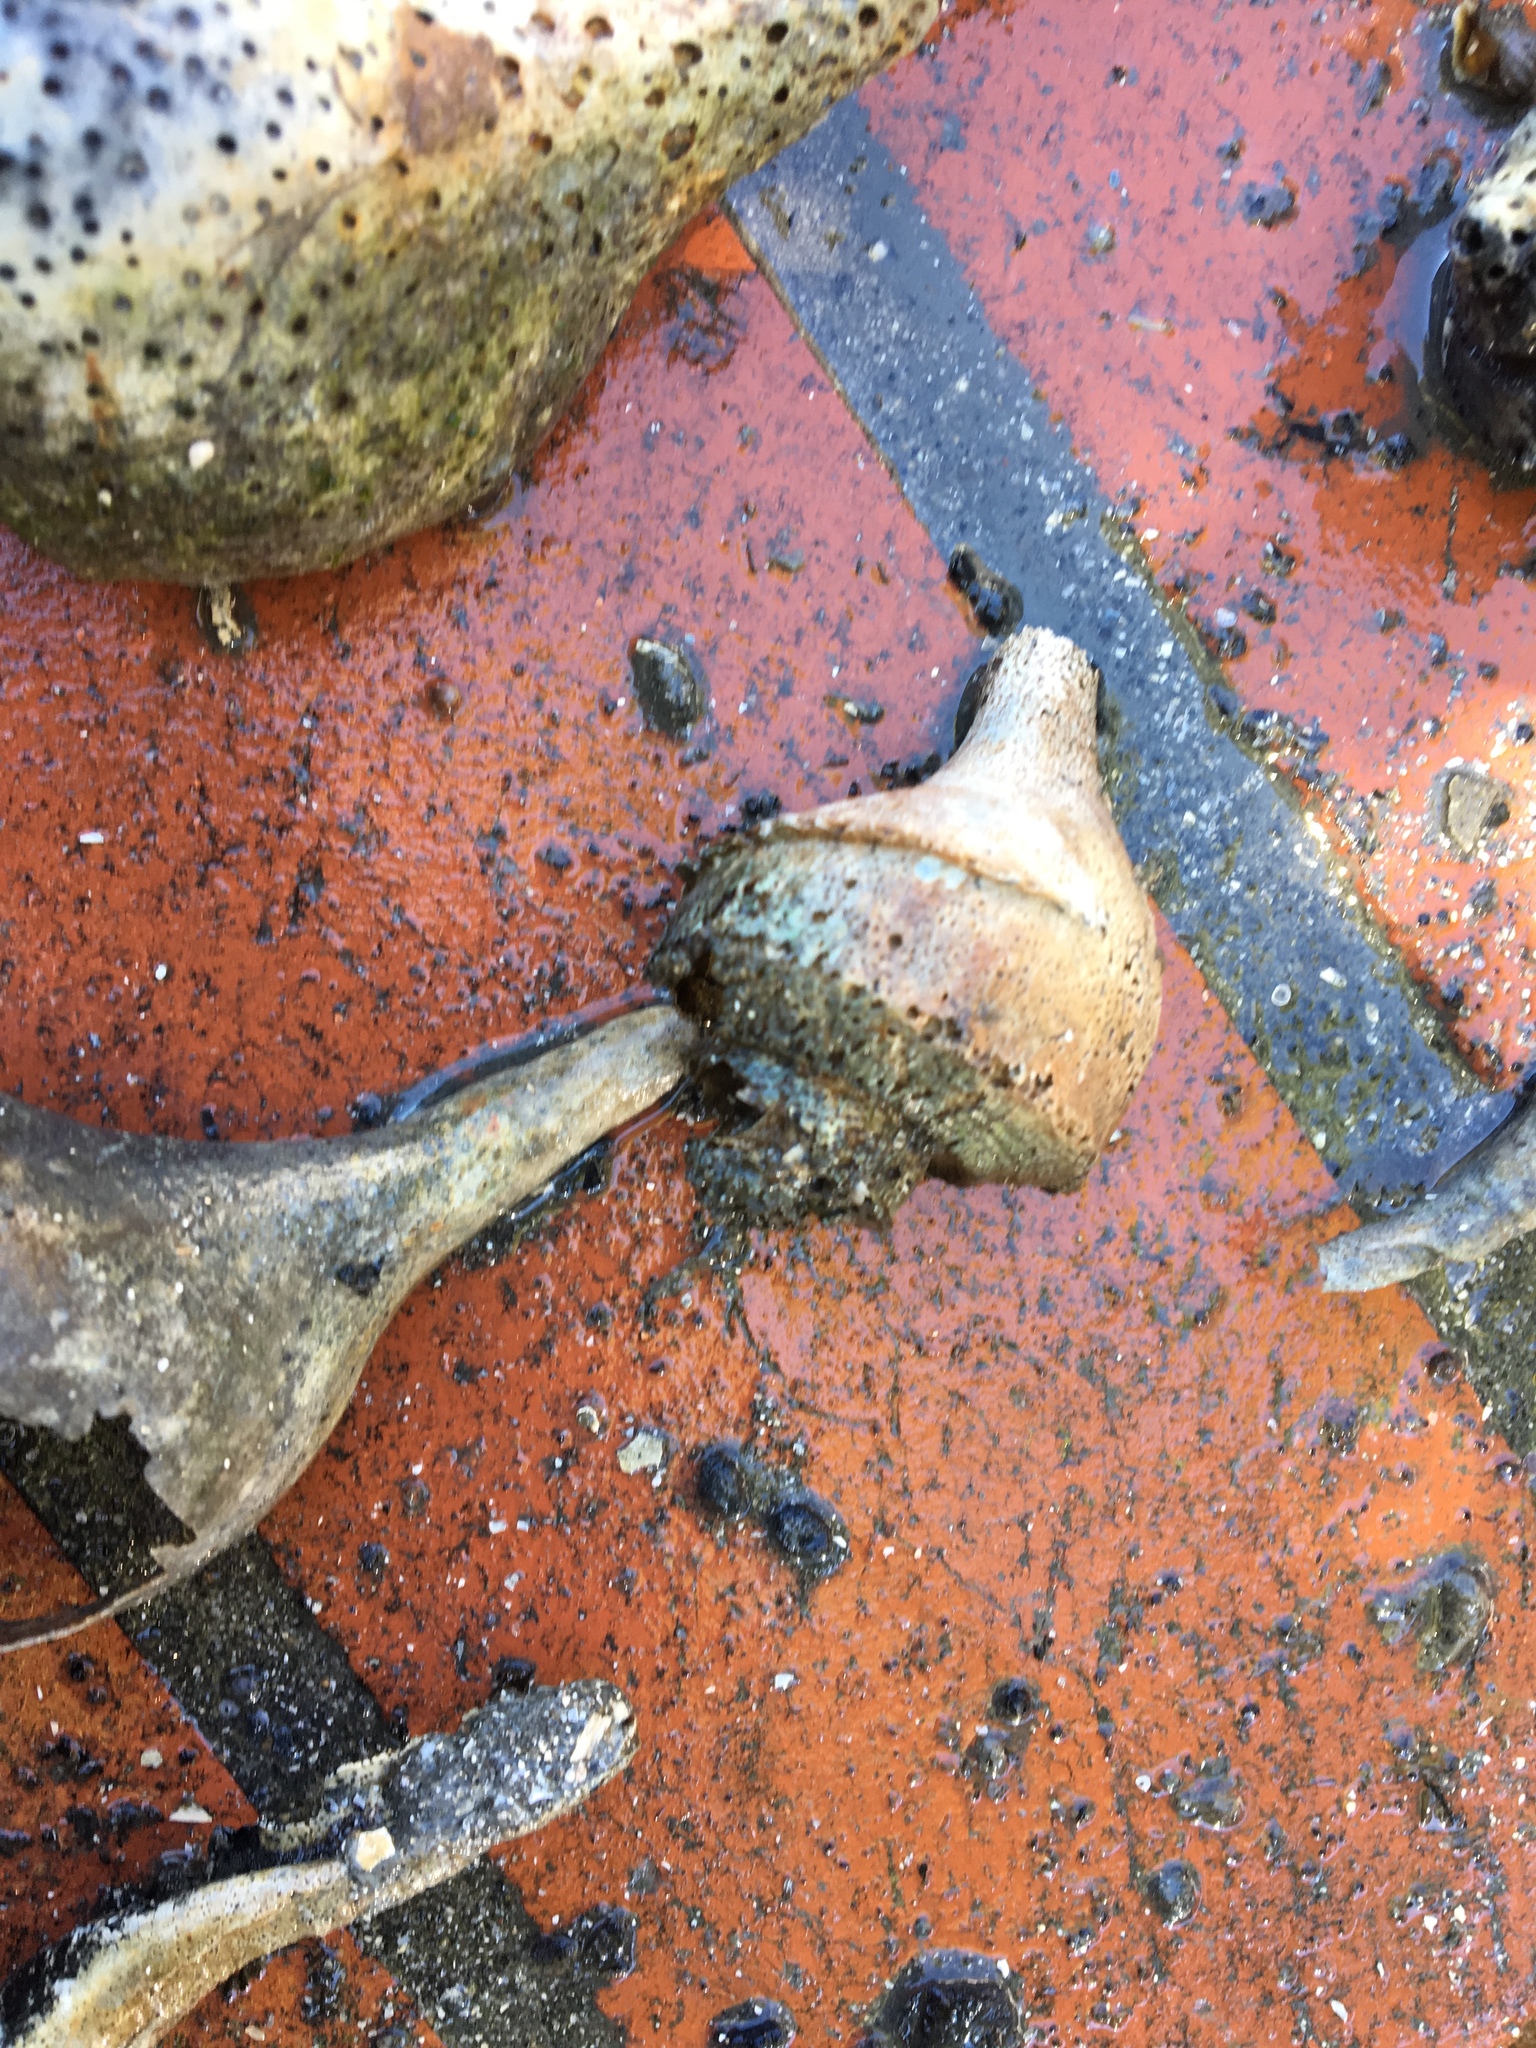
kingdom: Animalia
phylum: Mollusca
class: Gastropoda
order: Neogastropoda
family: Busyconidae
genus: Busycotypus
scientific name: Busycotypus canaliculatus
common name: Channeled whelk
